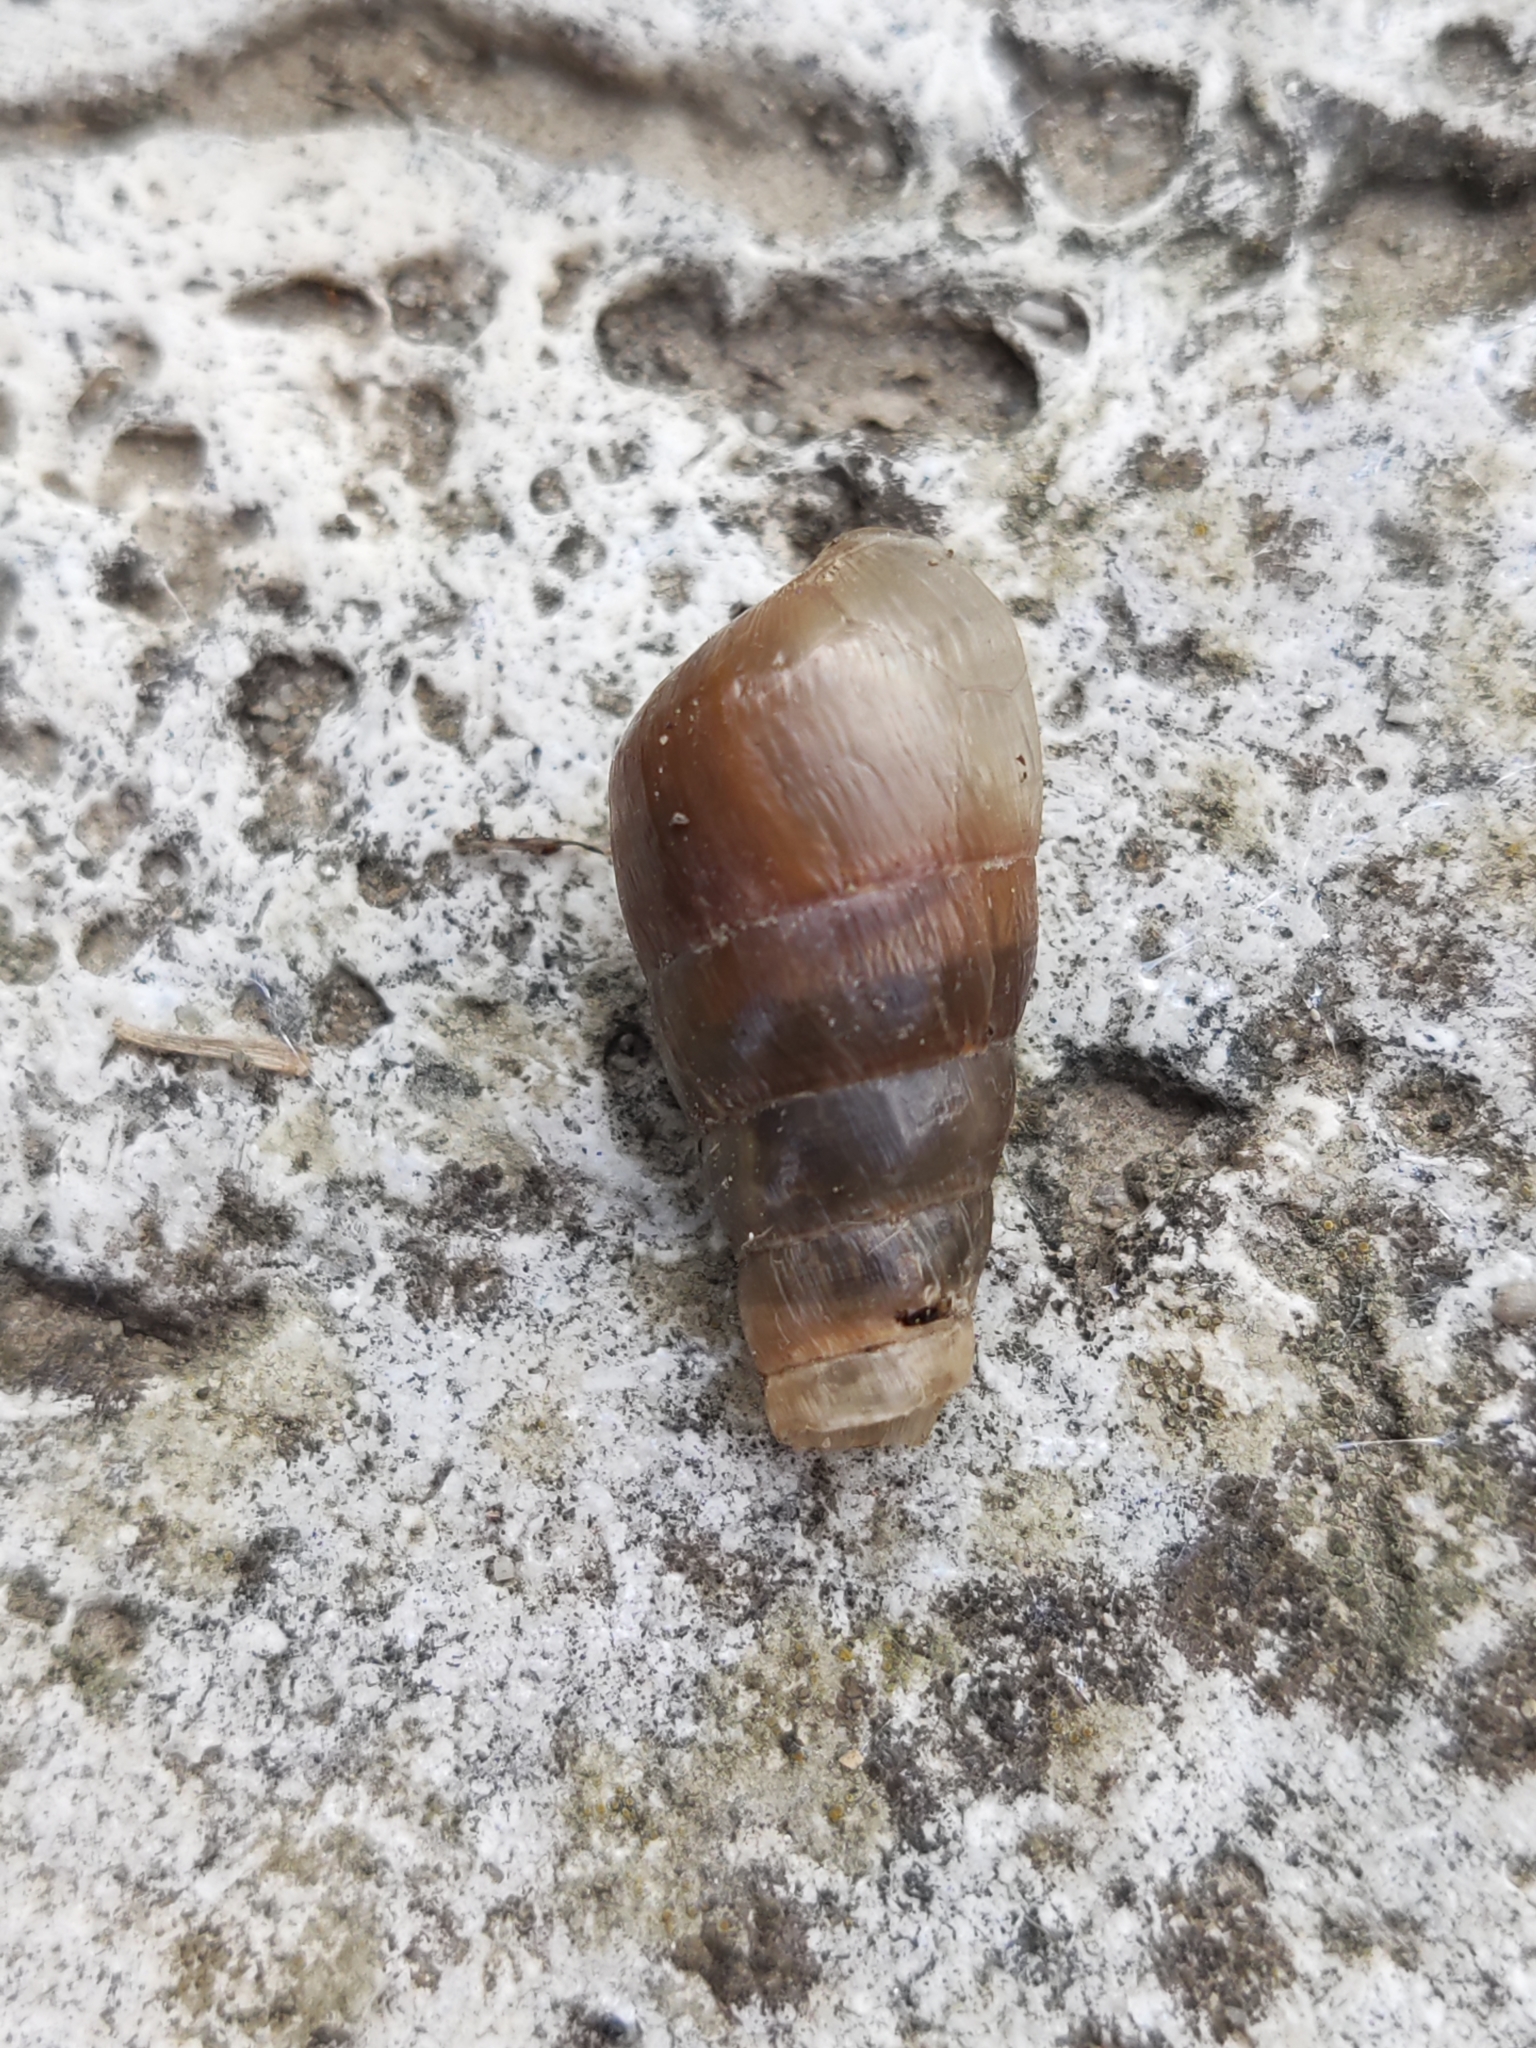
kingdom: Animalia
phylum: Mollusca
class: Gastropoda
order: Stylommatophora
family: Achatinidae
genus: Rumina
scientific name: Rumina decollata
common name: Decollate snail
